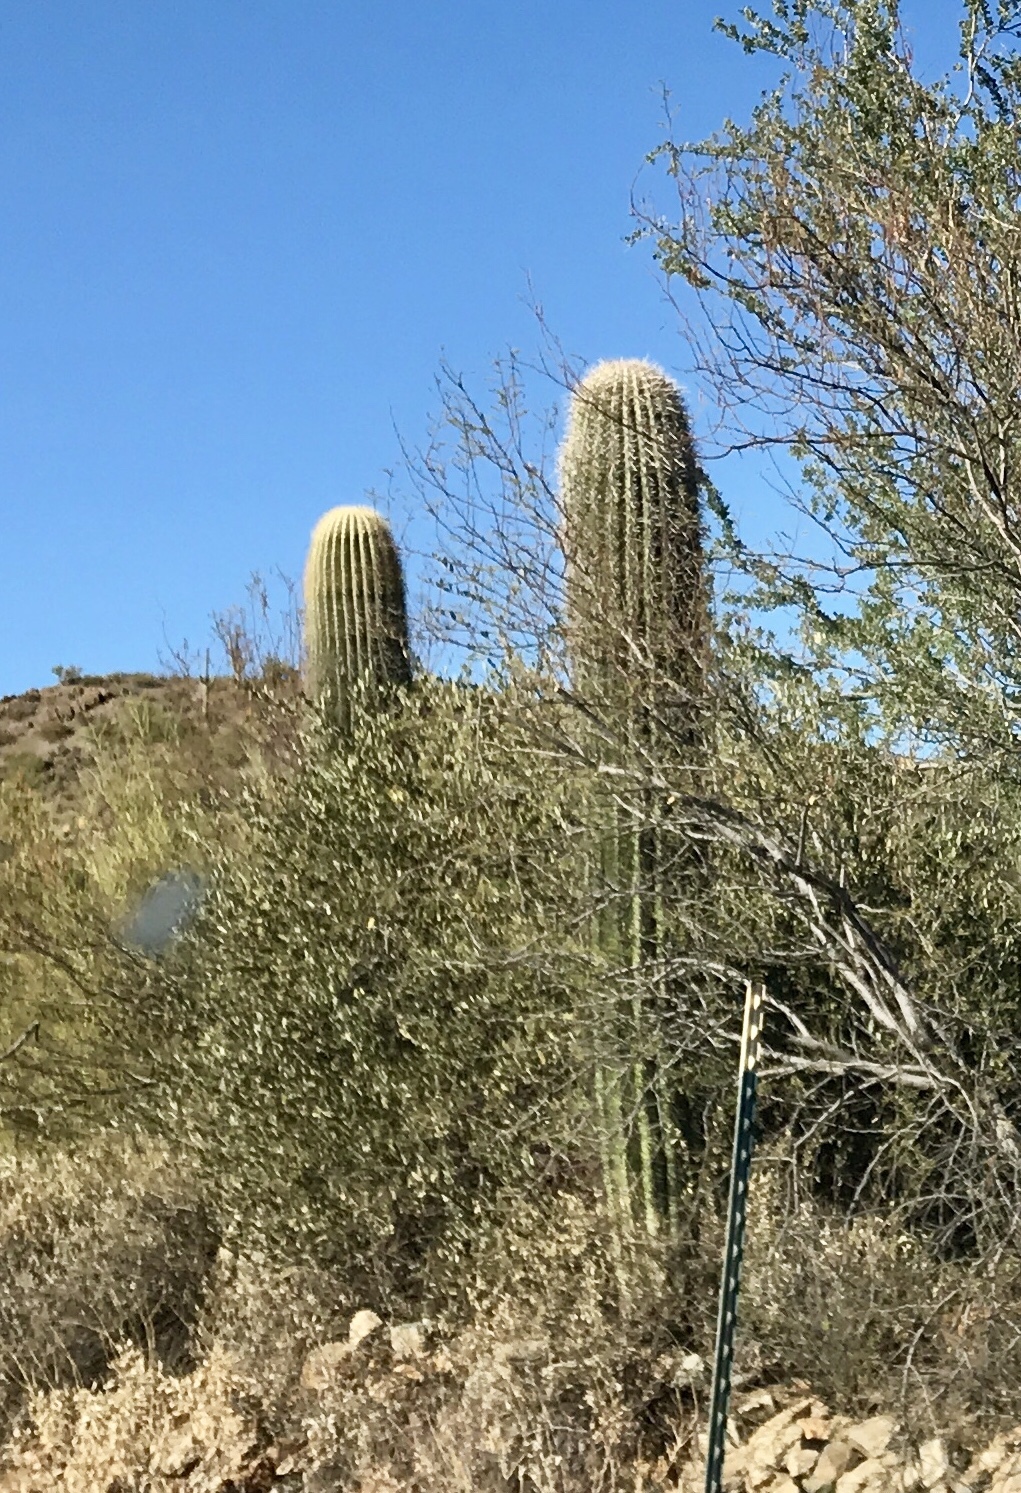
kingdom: Plantae
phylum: Tracheophyta
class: Magnoliopsida
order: Caryophyllales
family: Cactaceae
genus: Carnegiea
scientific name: Carnegiea gigantea
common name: Saguaro
